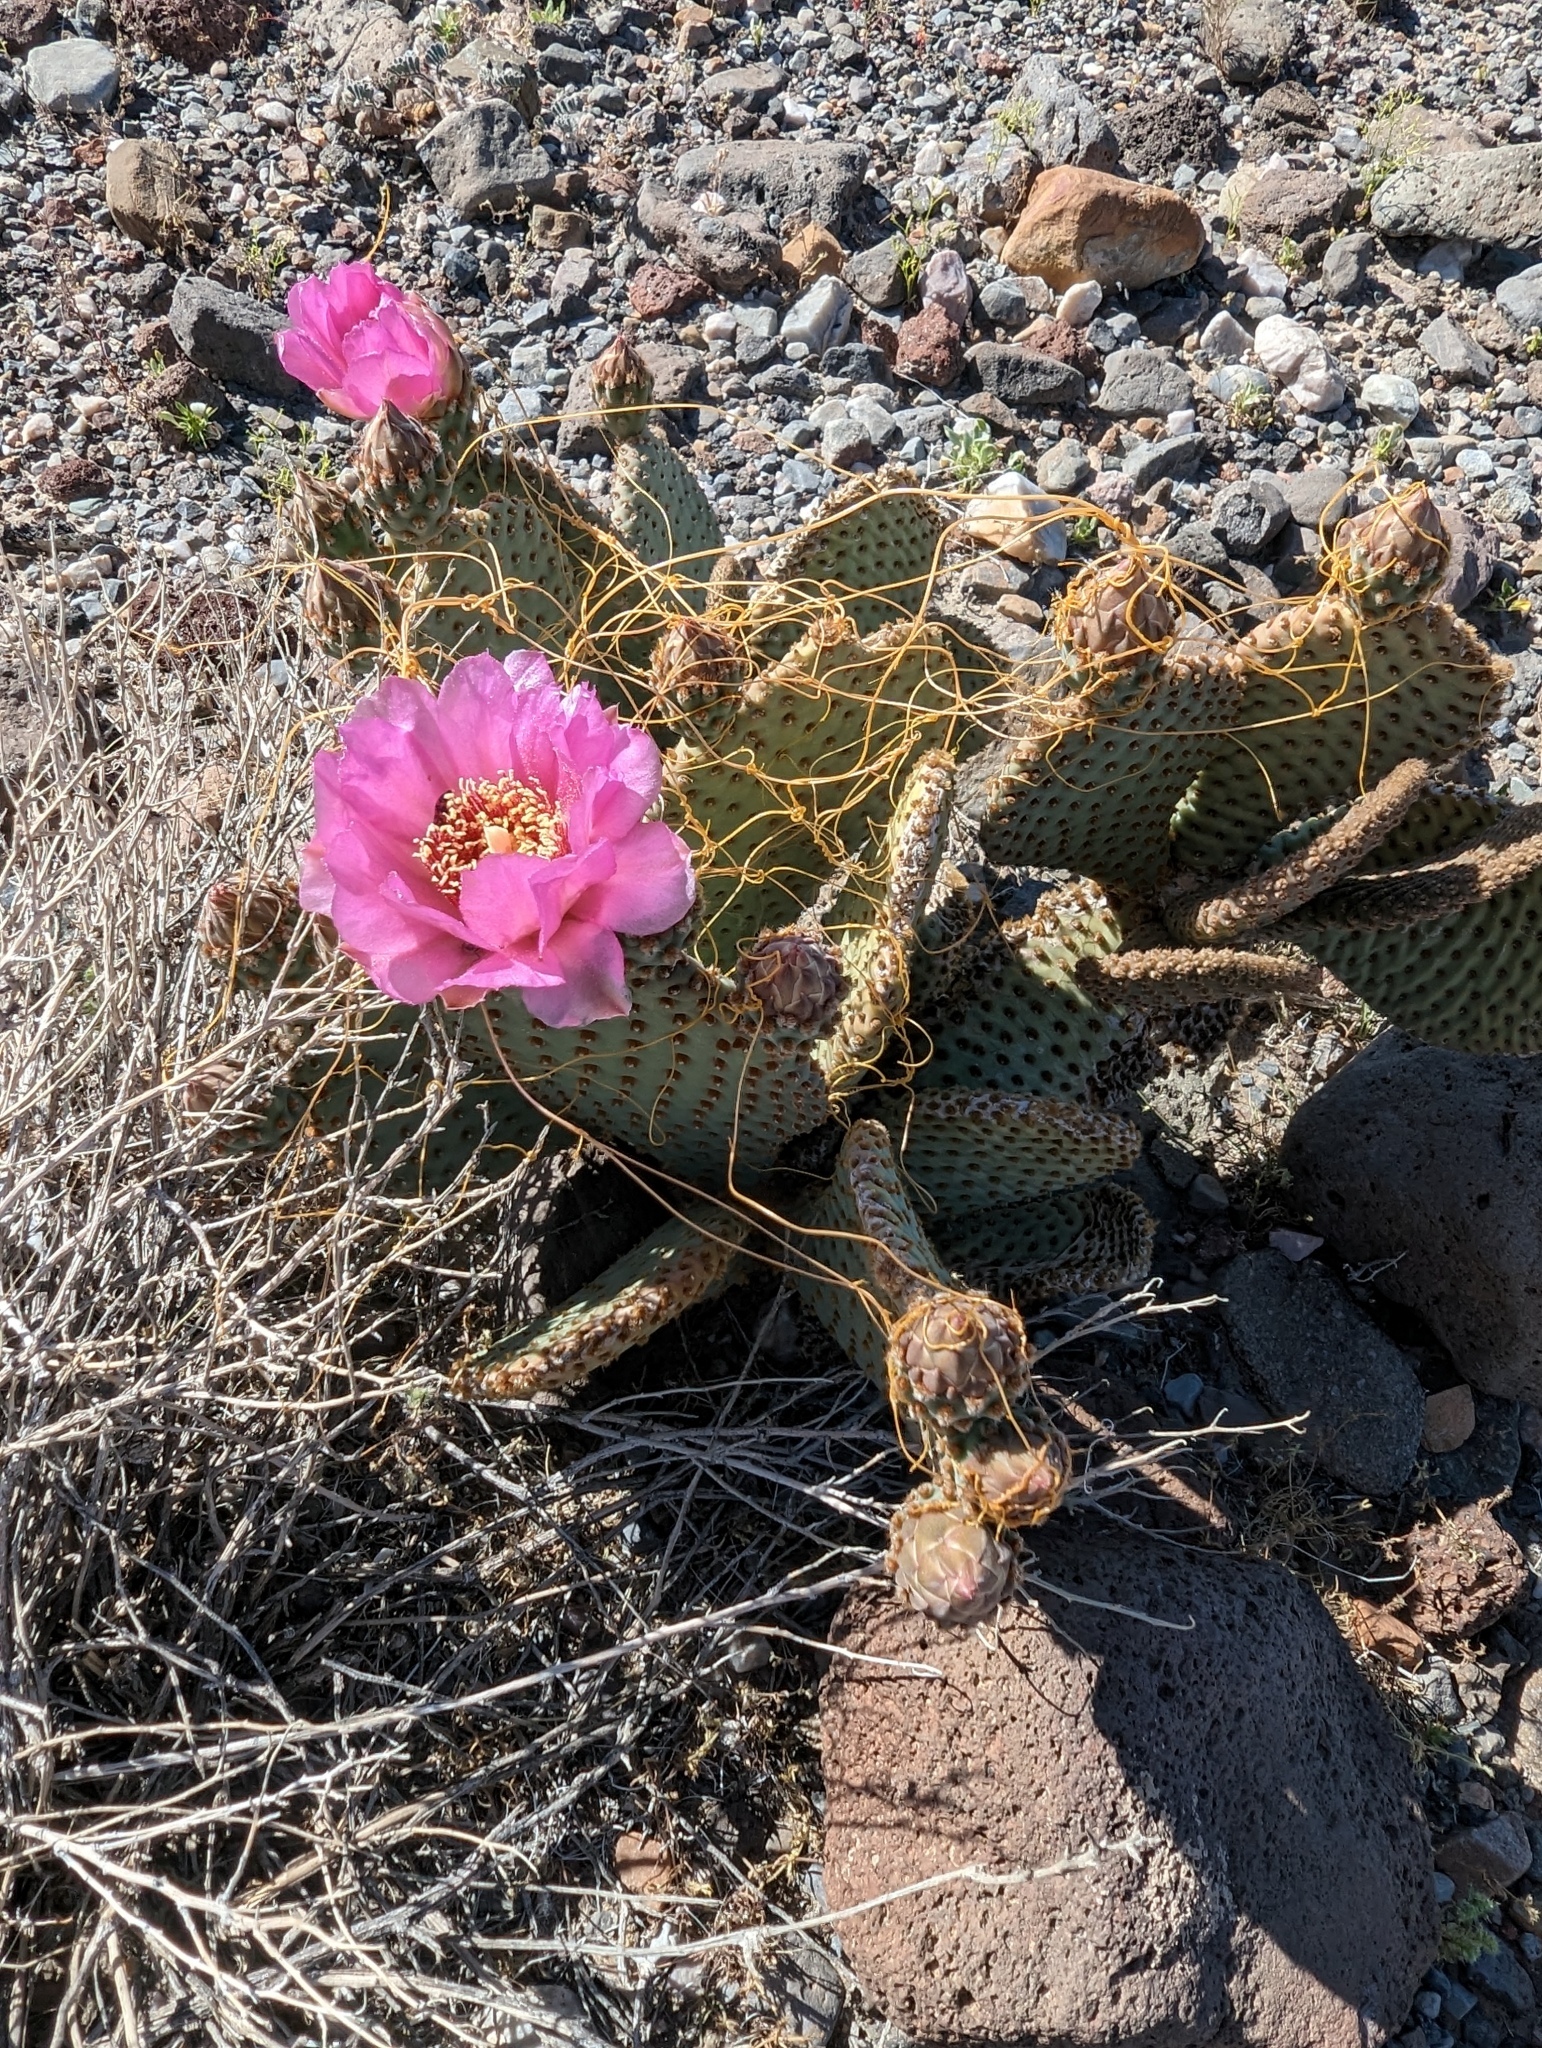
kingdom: Plantae
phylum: Tracheophyta
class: Magnoliopsida
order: Caryophyllales
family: Cactaceae
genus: Opuntia
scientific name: Opuntia basilaris
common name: Beavertail prickly-pear
